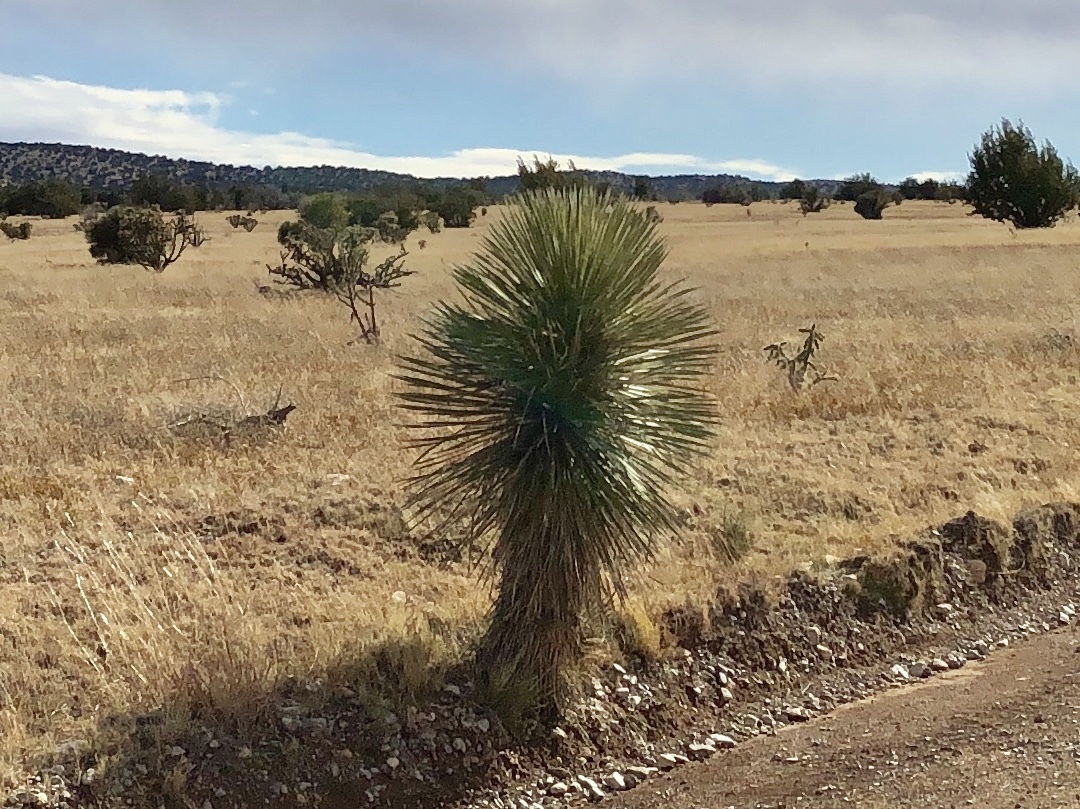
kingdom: Plantae
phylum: Tracheophyta
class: Liliopsida
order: Asparagales
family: Asparagaceae
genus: Yucca
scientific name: Yucca elata
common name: Palmella
